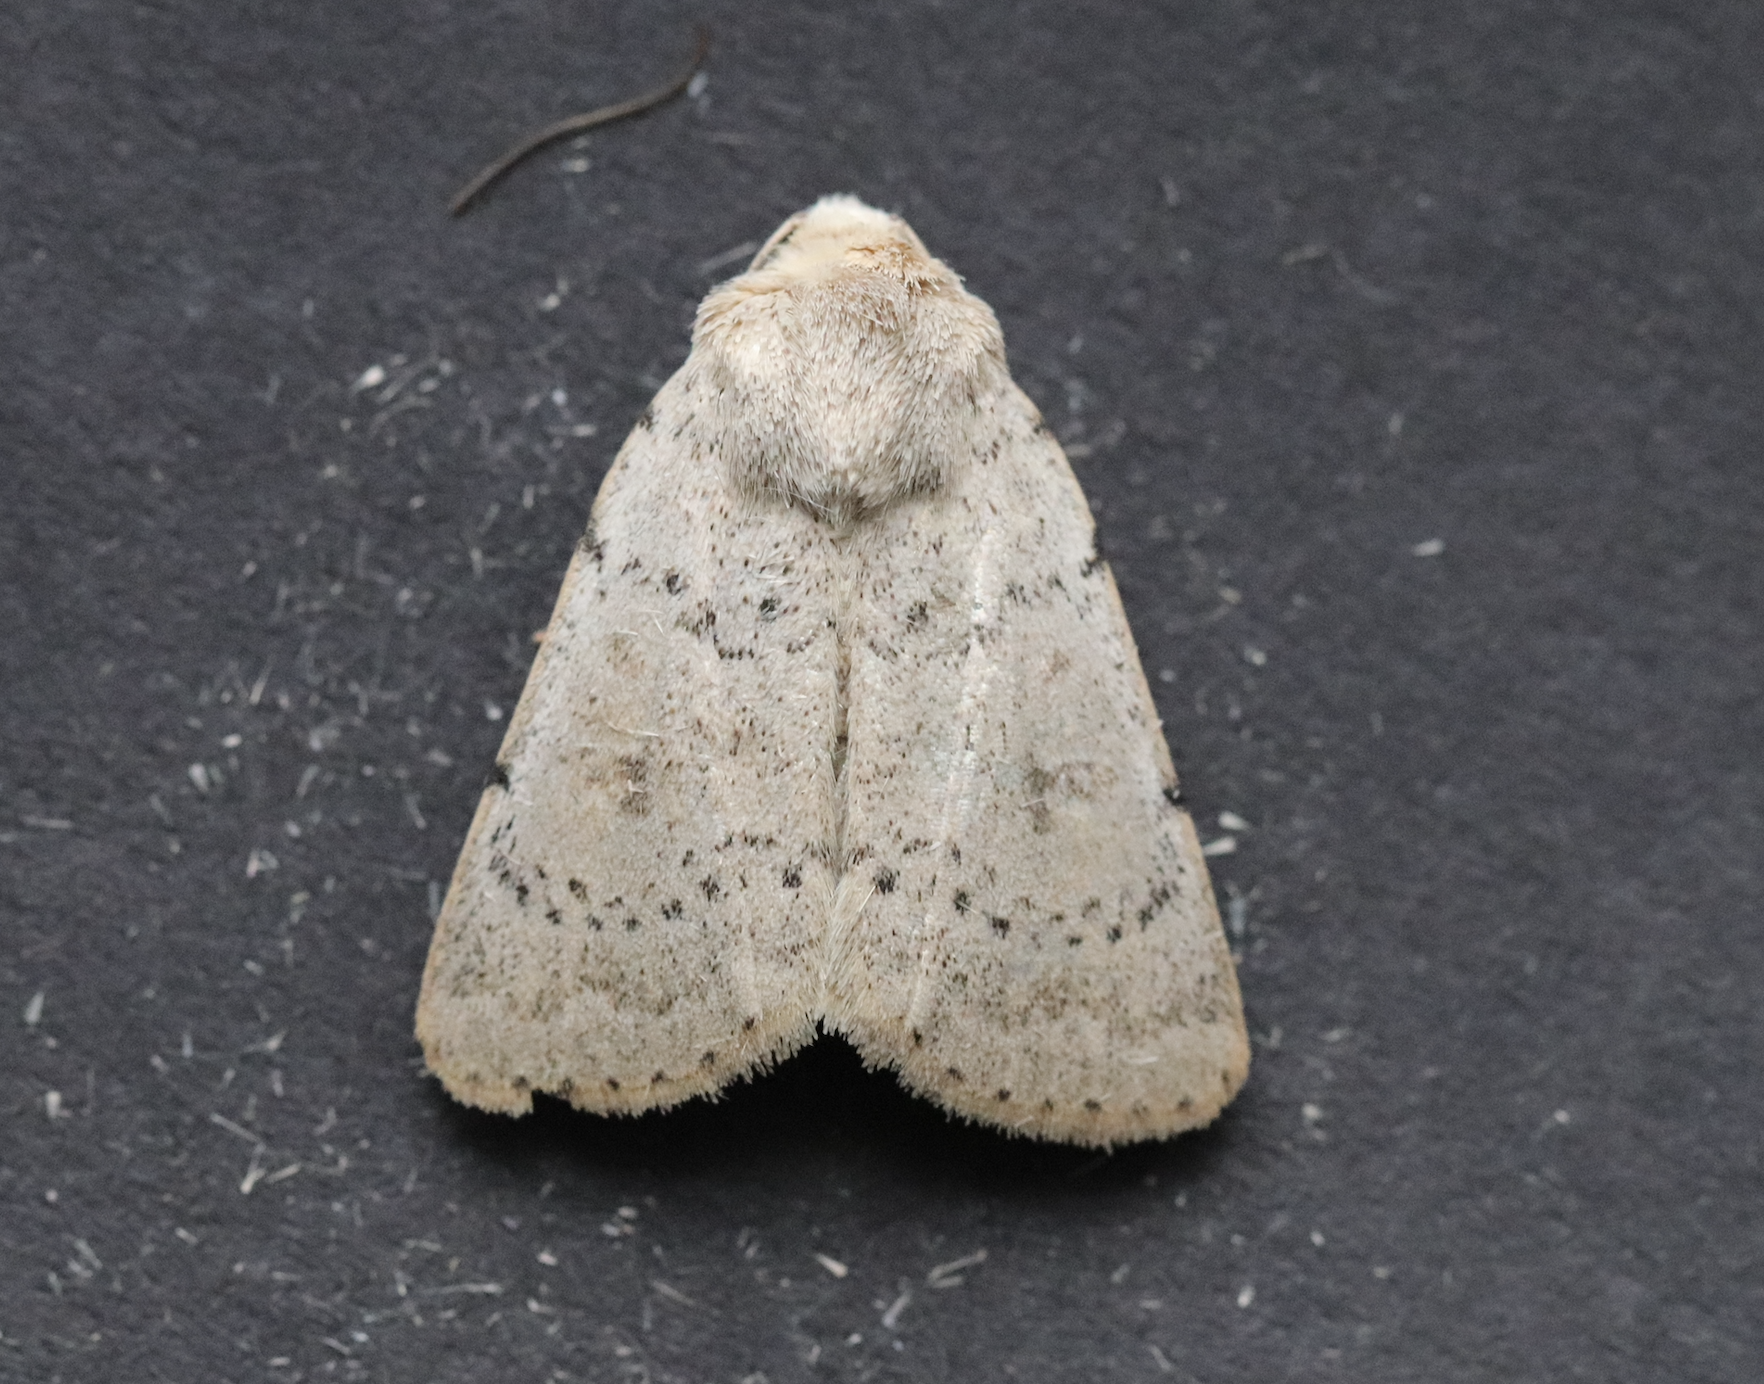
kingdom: Animalia
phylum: Arthropoda
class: Insecta
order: Lepidoptera
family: Noctuidae
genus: Hoplodrina
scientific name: Hoplodrina respersa
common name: Sprinkled rustic
